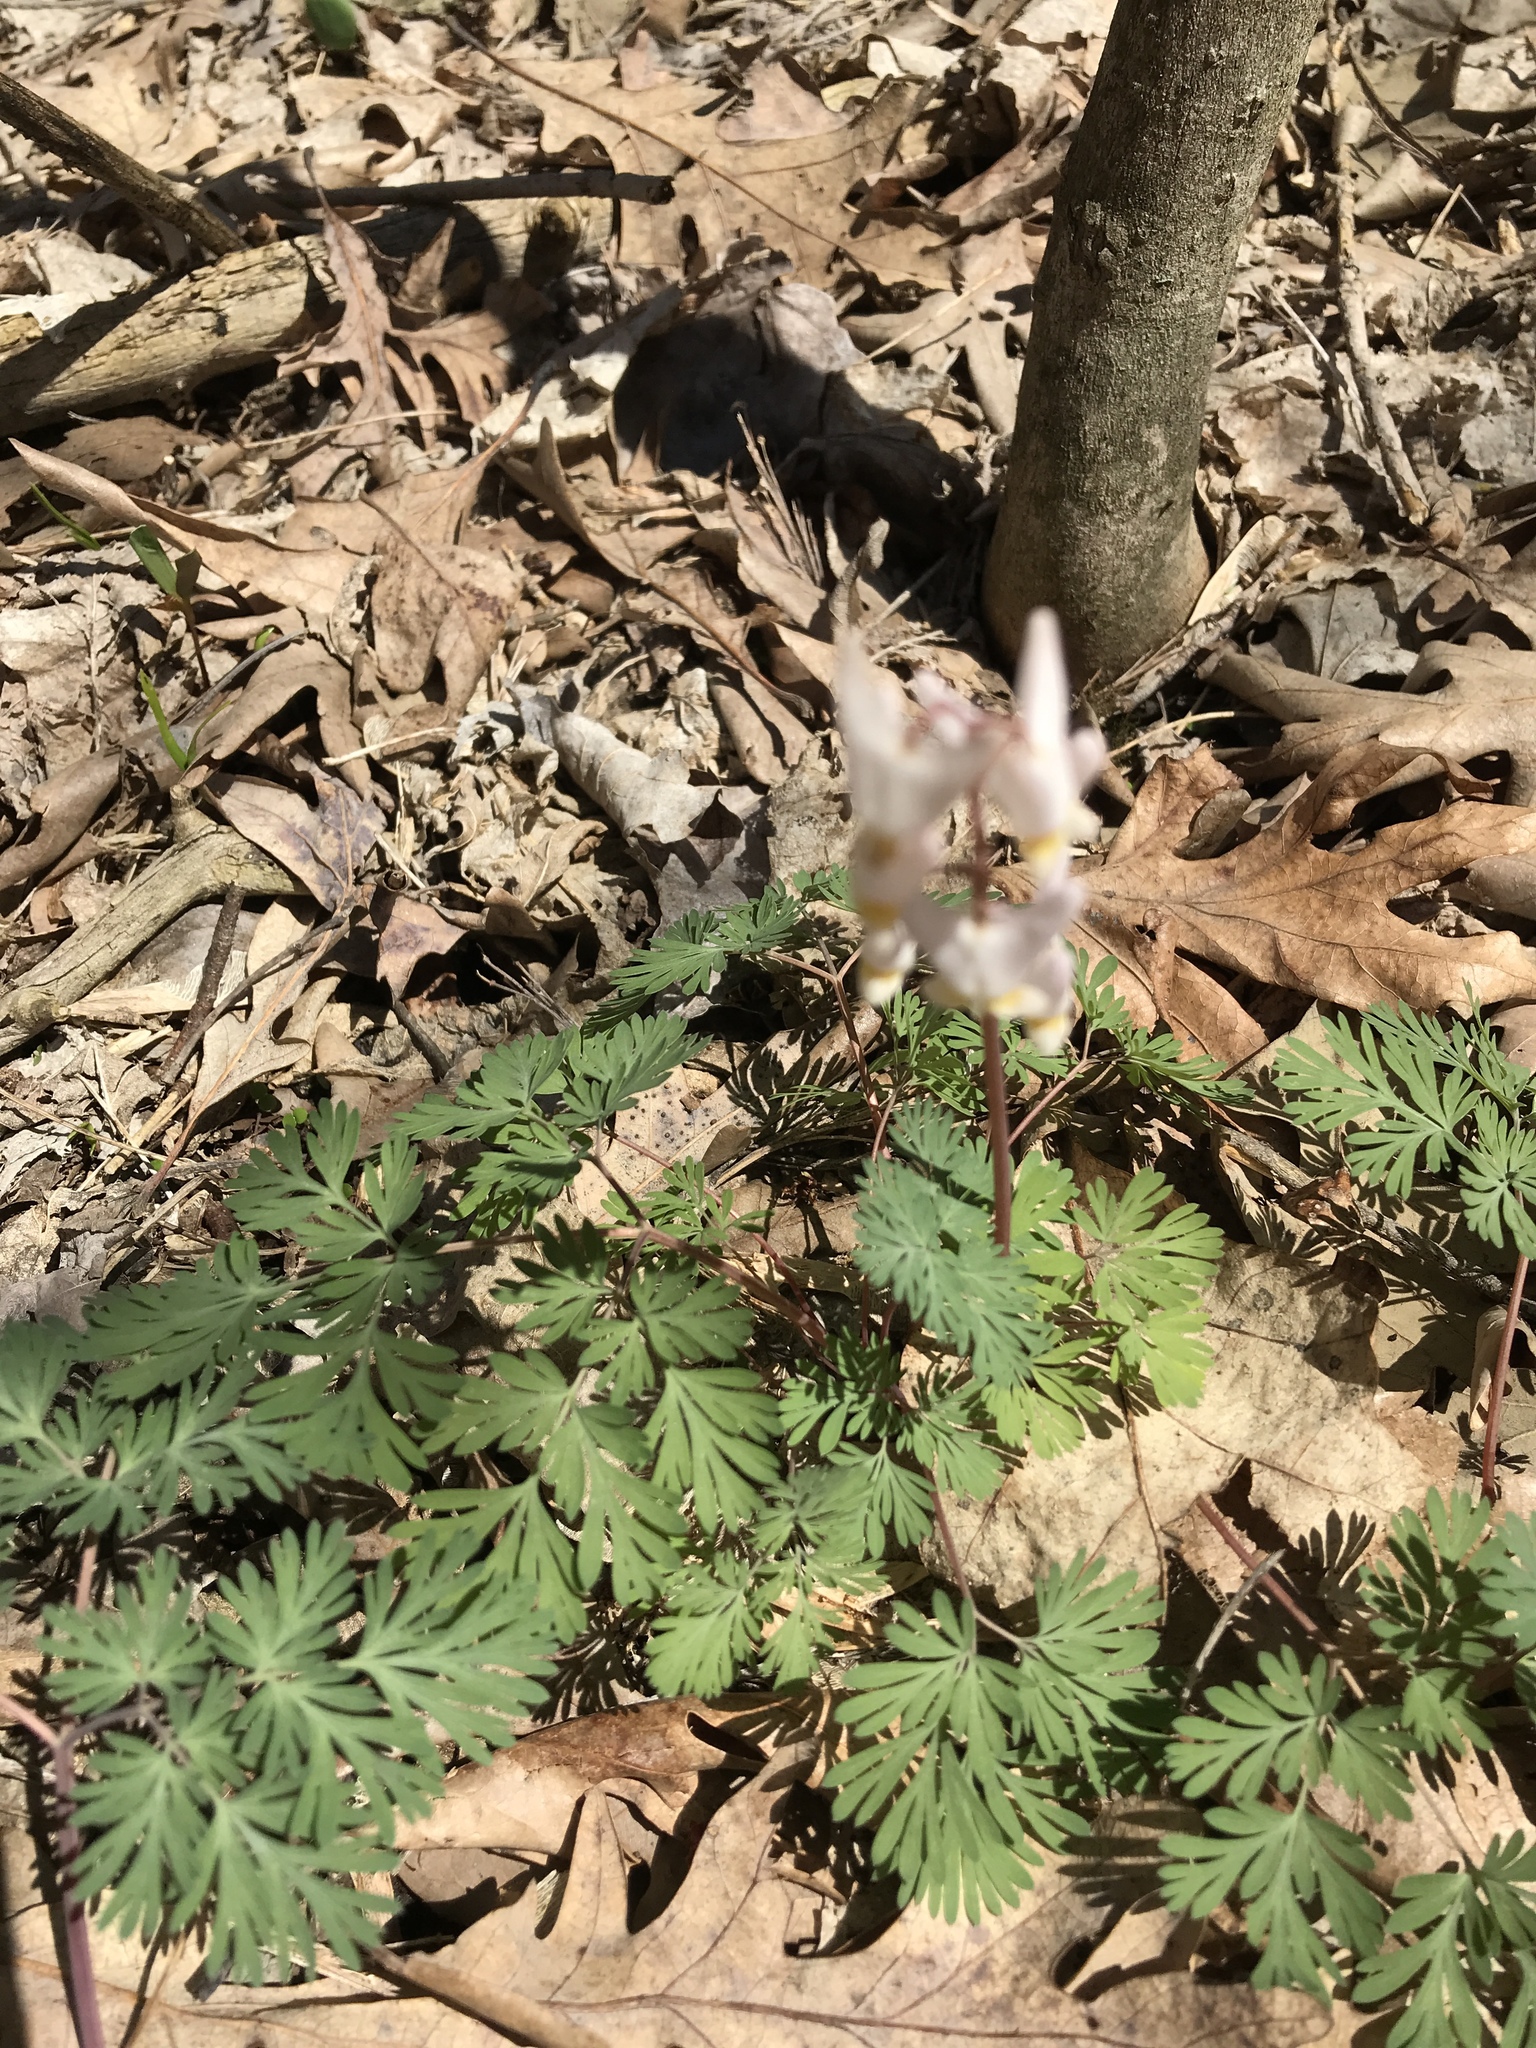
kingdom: Plantae
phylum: Tracheophyta
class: Magnoliopsida
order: Ranunculales
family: Papaveraceae
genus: Dicentra
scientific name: Dicentra cucullaria
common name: Dutchman's breeches
